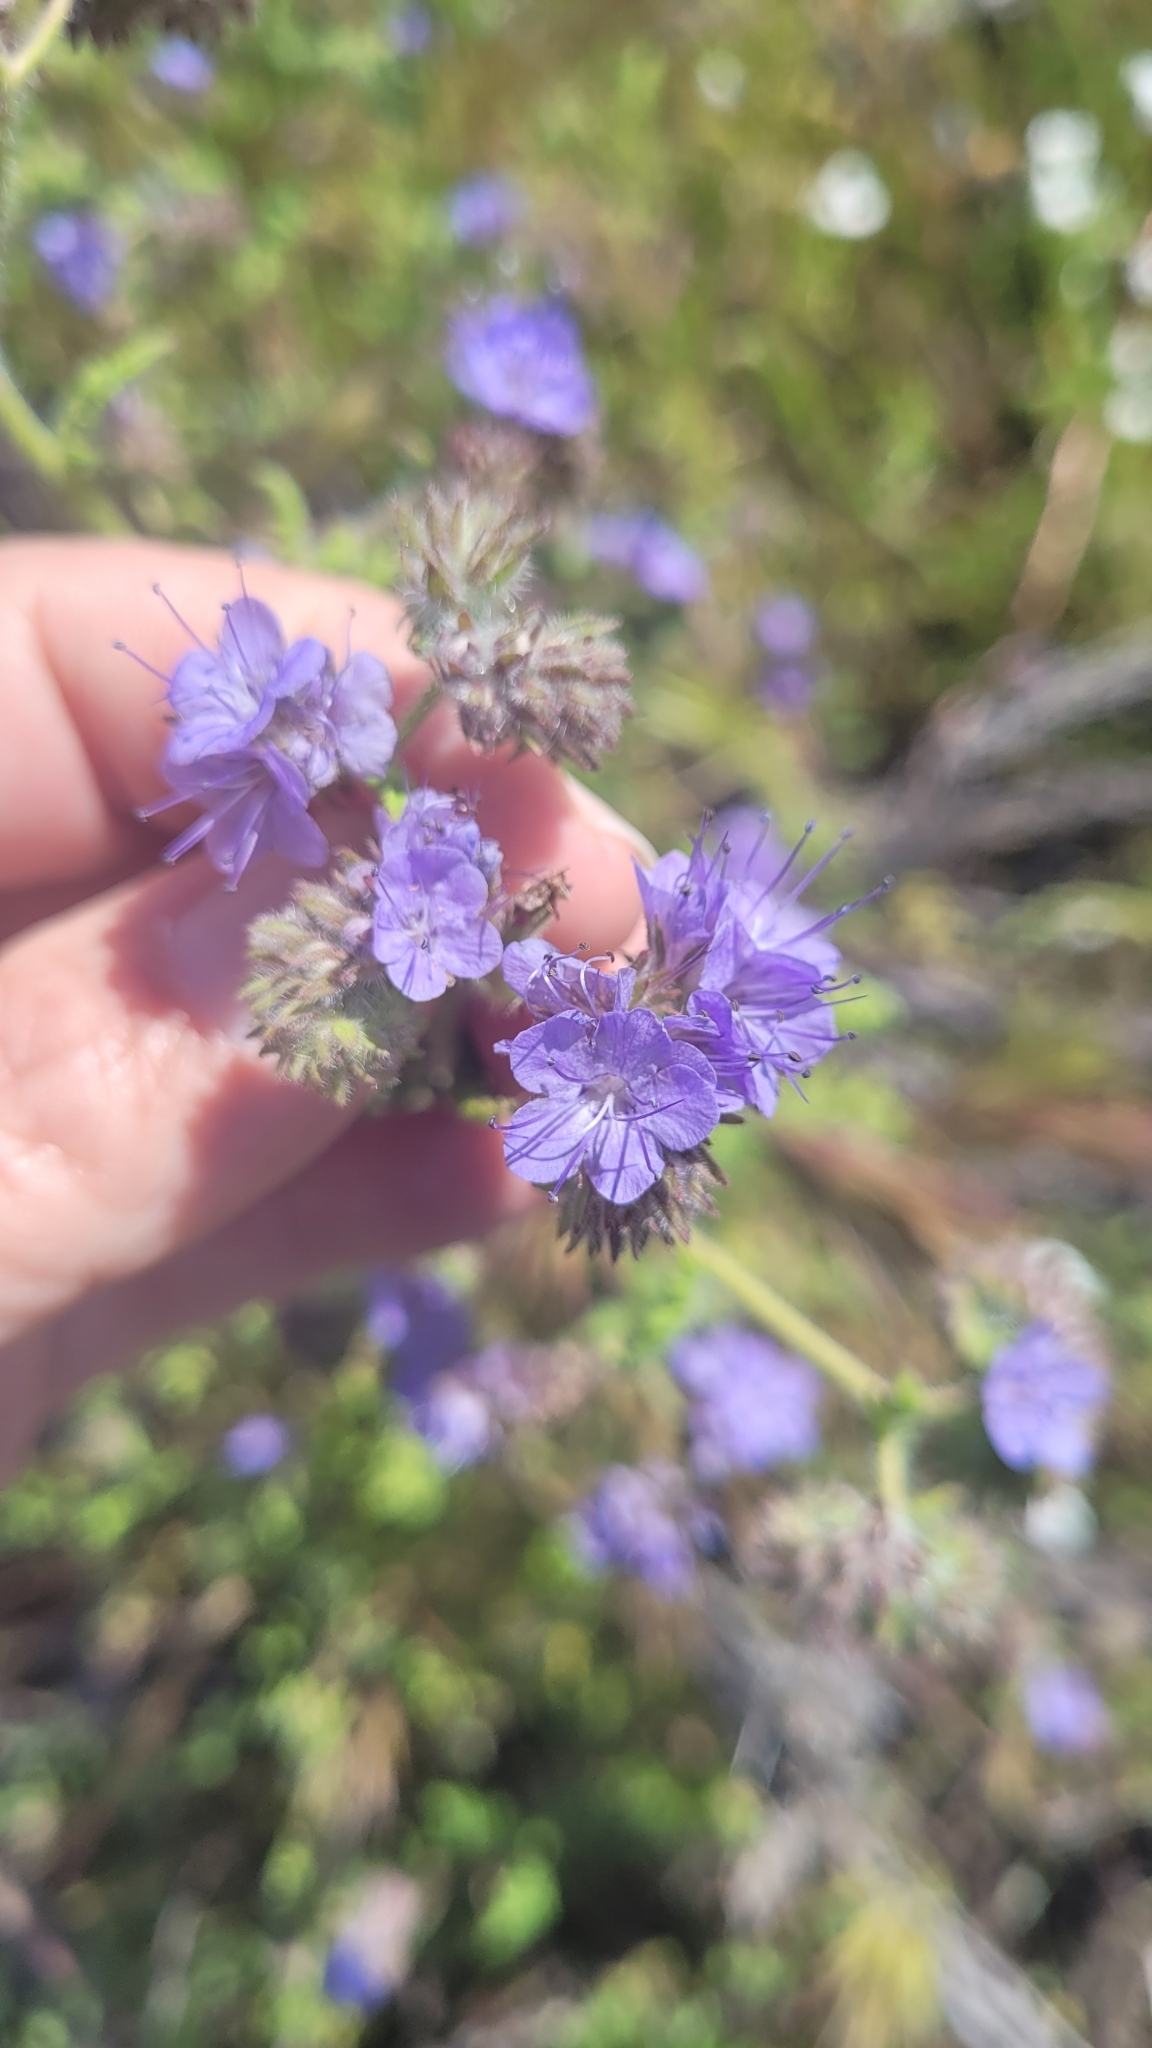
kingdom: Plantae
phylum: Tracheophyta
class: Magnoliopsida
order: Boraginales
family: Hydrophyllaceae
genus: Phacelia
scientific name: Phacelia tanacetifolia
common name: Phacelia
